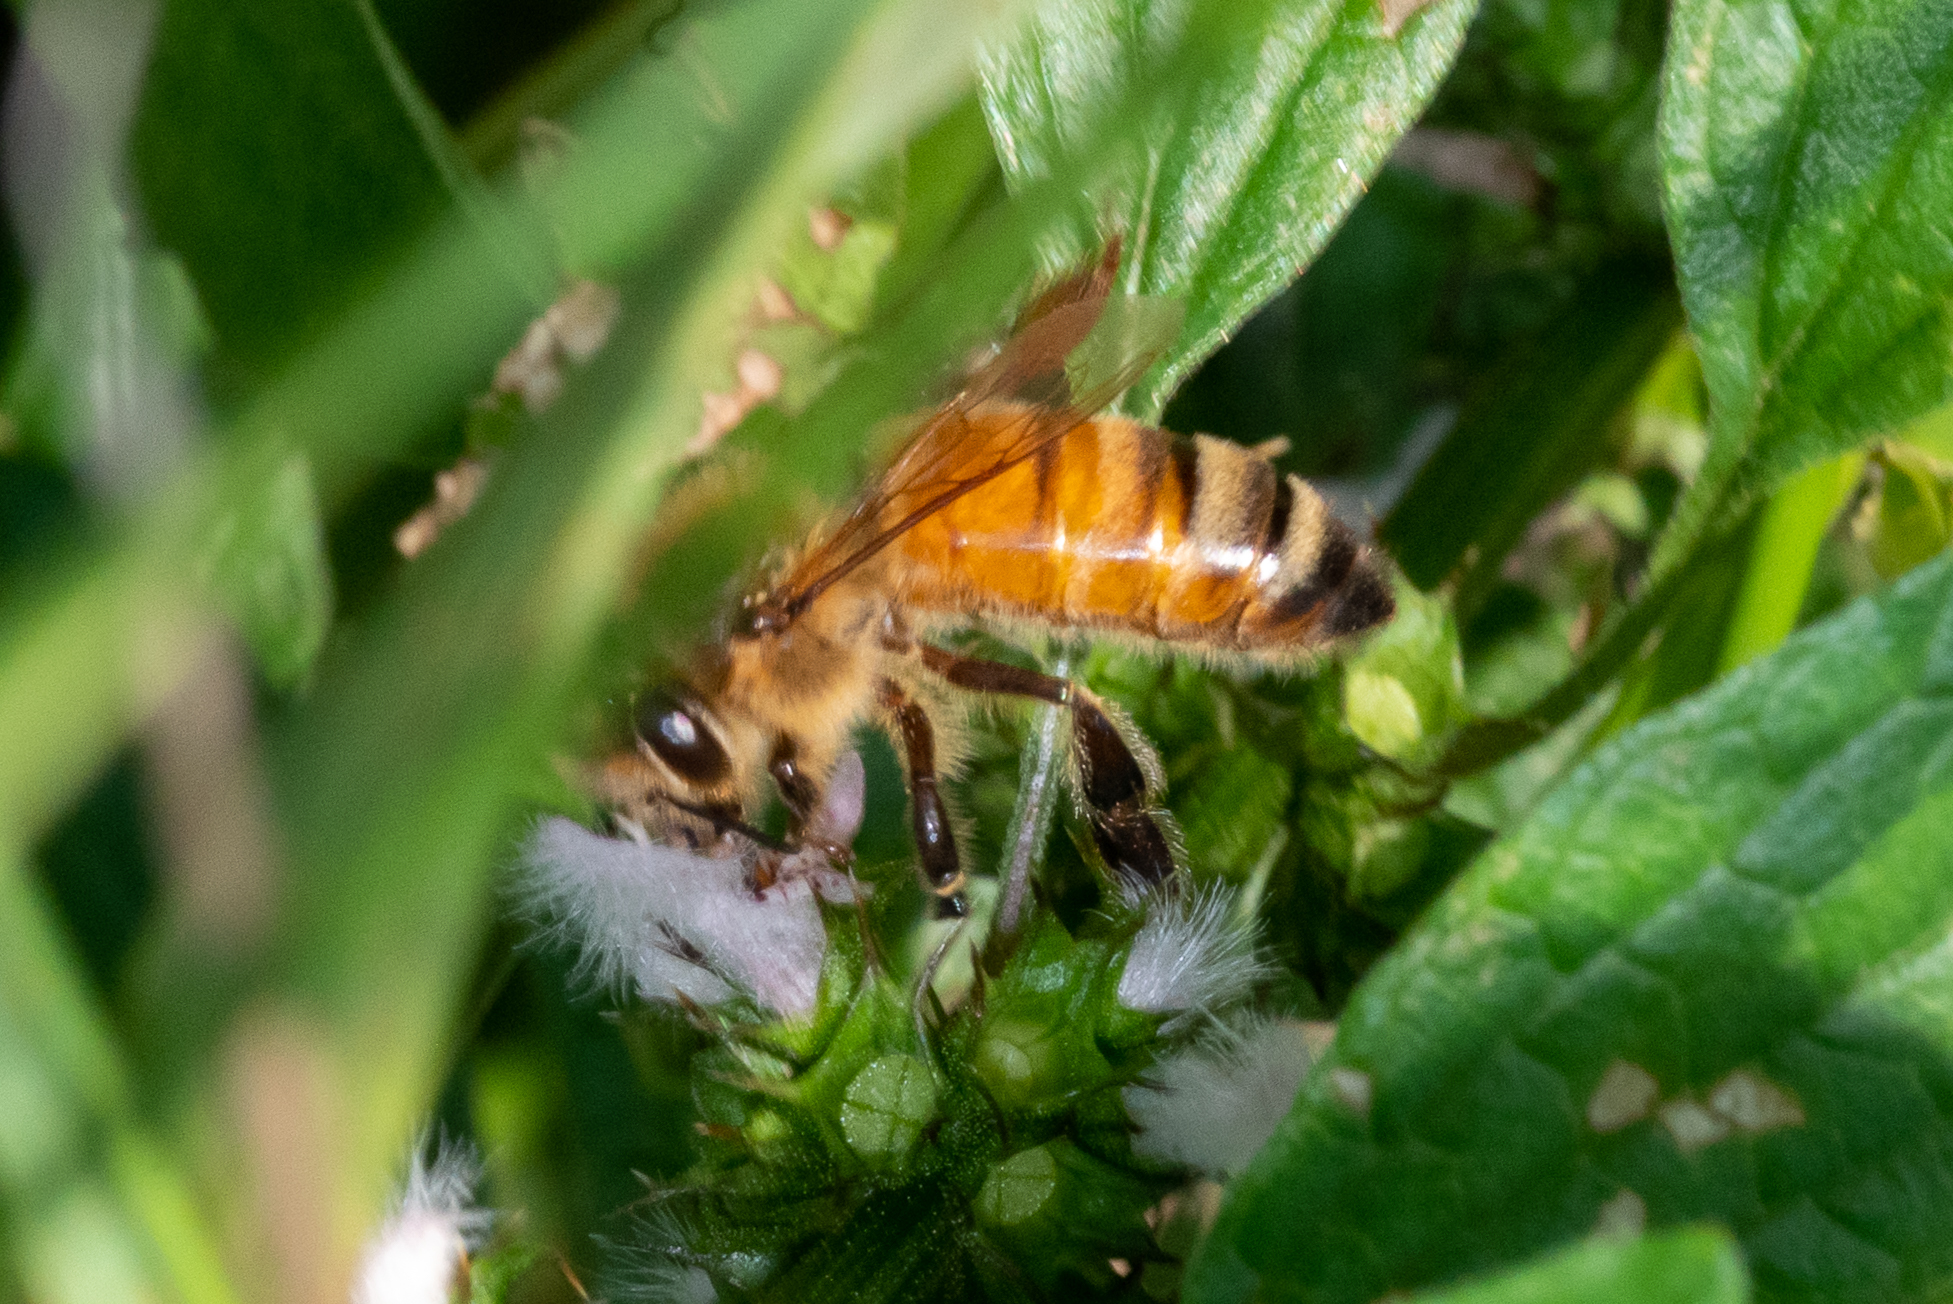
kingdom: Animalia
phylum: Arthropoda
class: Insecta
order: Hymenoptera
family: Apidae
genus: Apis
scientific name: Apis mellifera
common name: Honey bee
